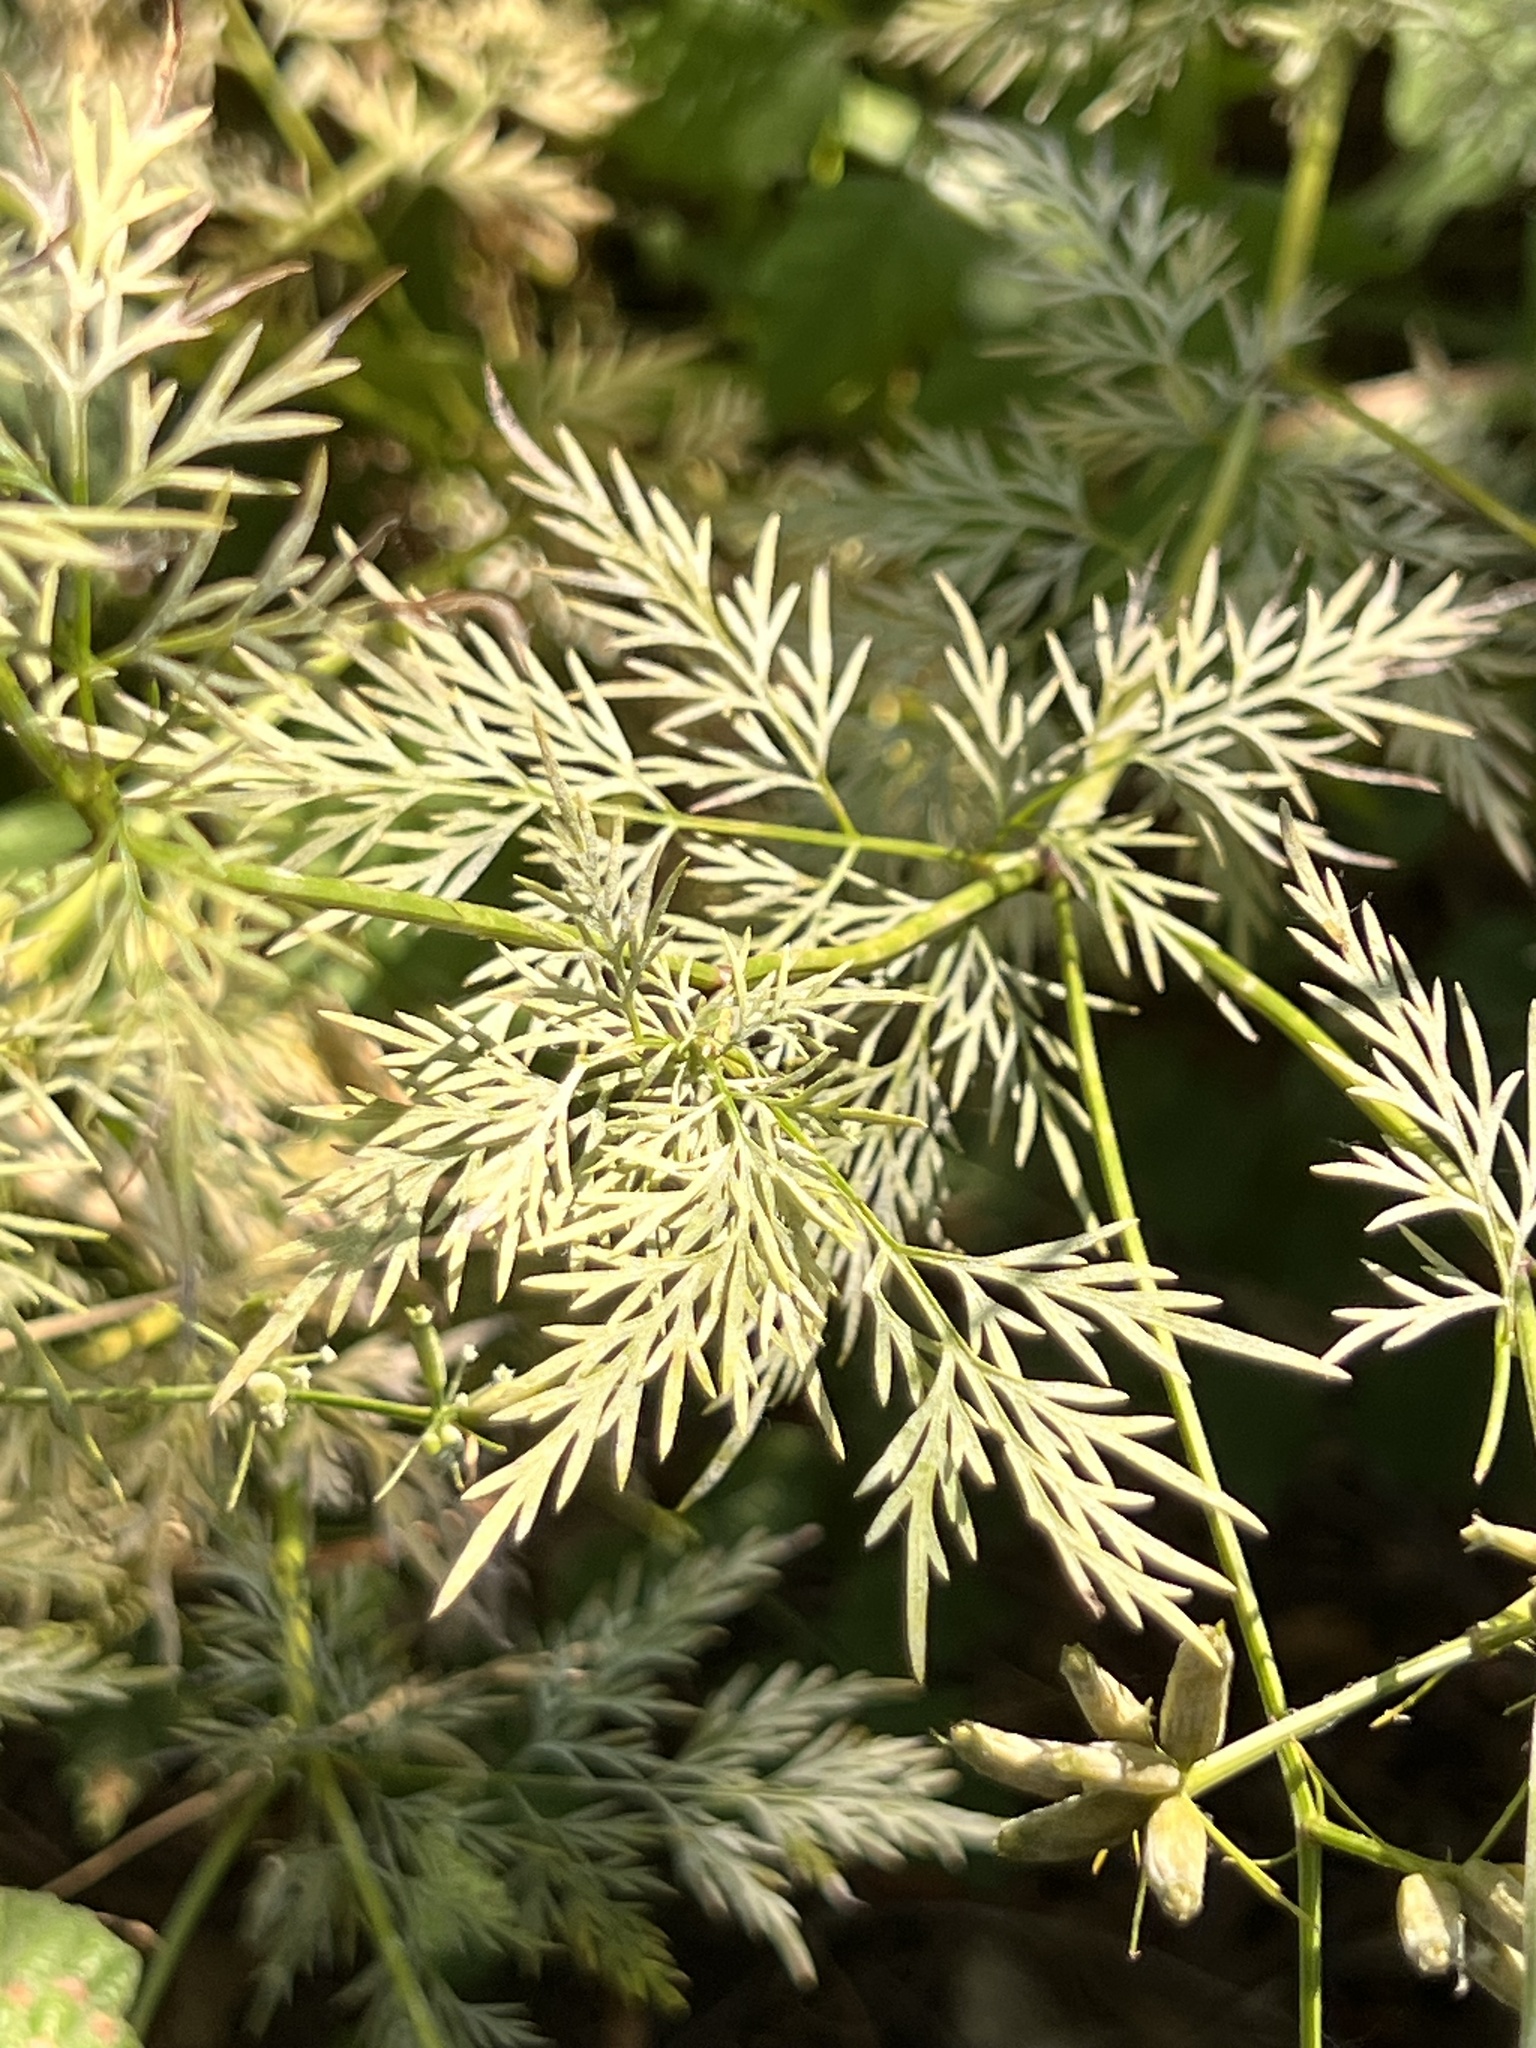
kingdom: Plantae
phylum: Tracheophyta
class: Magnoliopsida
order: Apiales
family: Apiaceae
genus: Trepocarpus
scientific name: Trepocarpus aethusae
